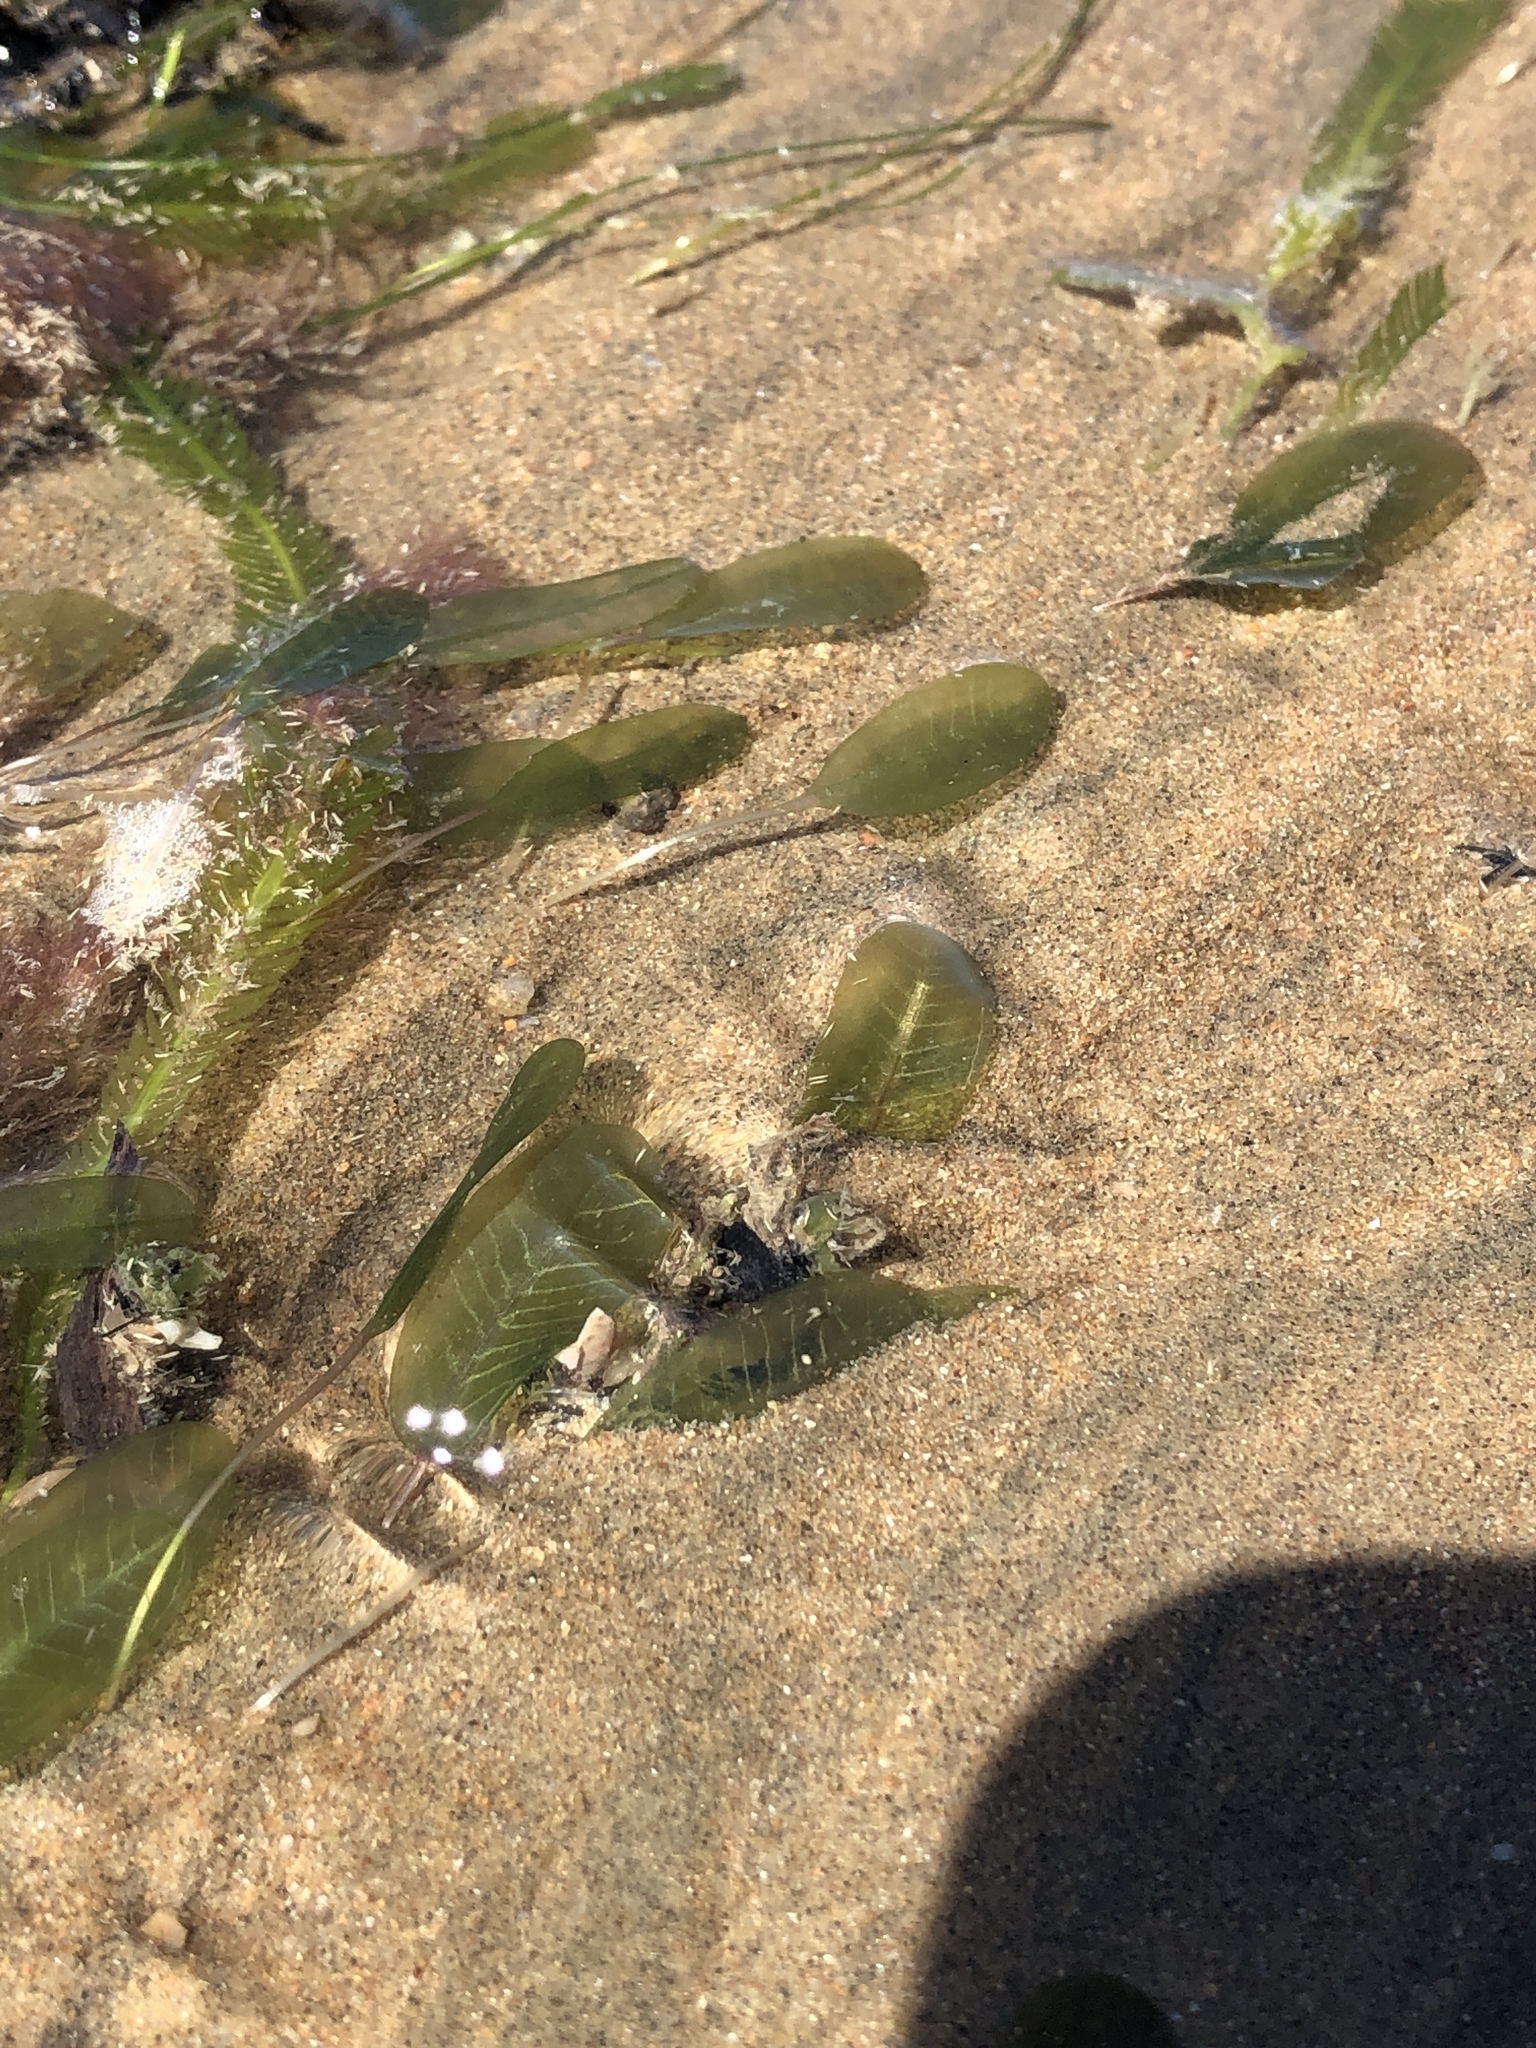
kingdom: Plantae
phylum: Tracheophyta
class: Liliopsida
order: Alismatales
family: Hydrocharitaceae
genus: Halophila
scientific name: Halophila ovalis
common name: Species code: ho
